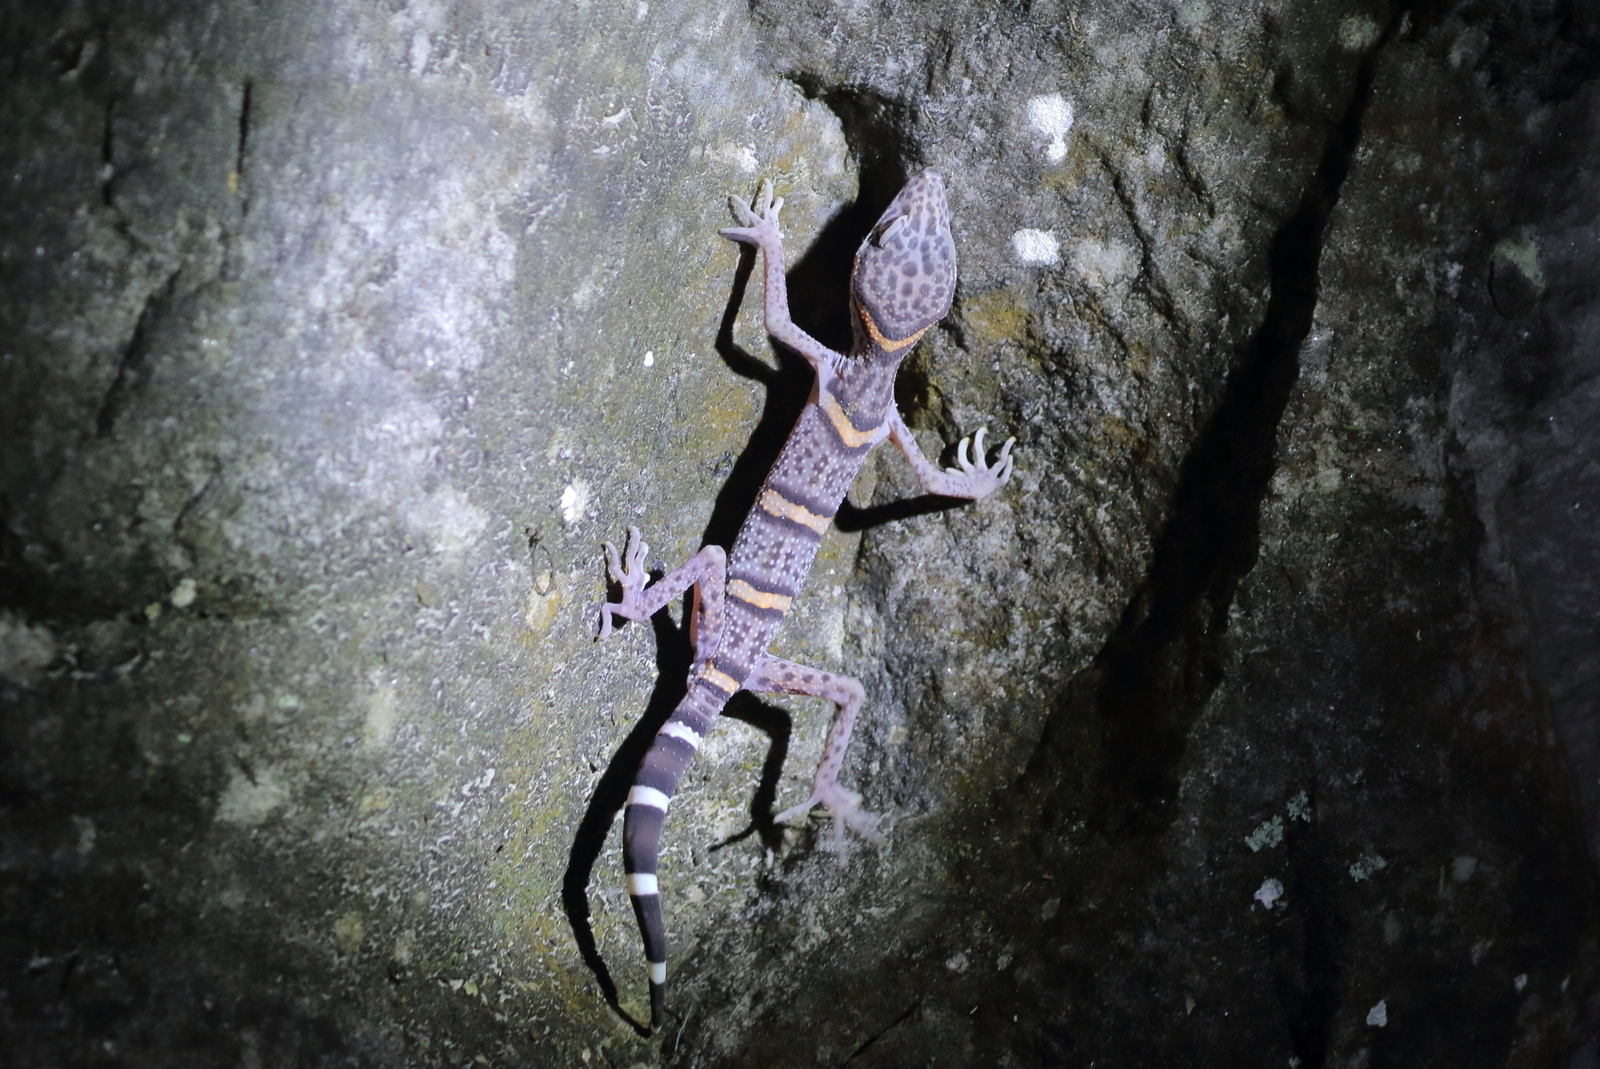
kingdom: Animalia
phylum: Chordata
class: Squamata
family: Eublepharidae
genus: Goniurosaurus
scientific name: Goniurosaurus luii
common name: Chinese leopard gecko
